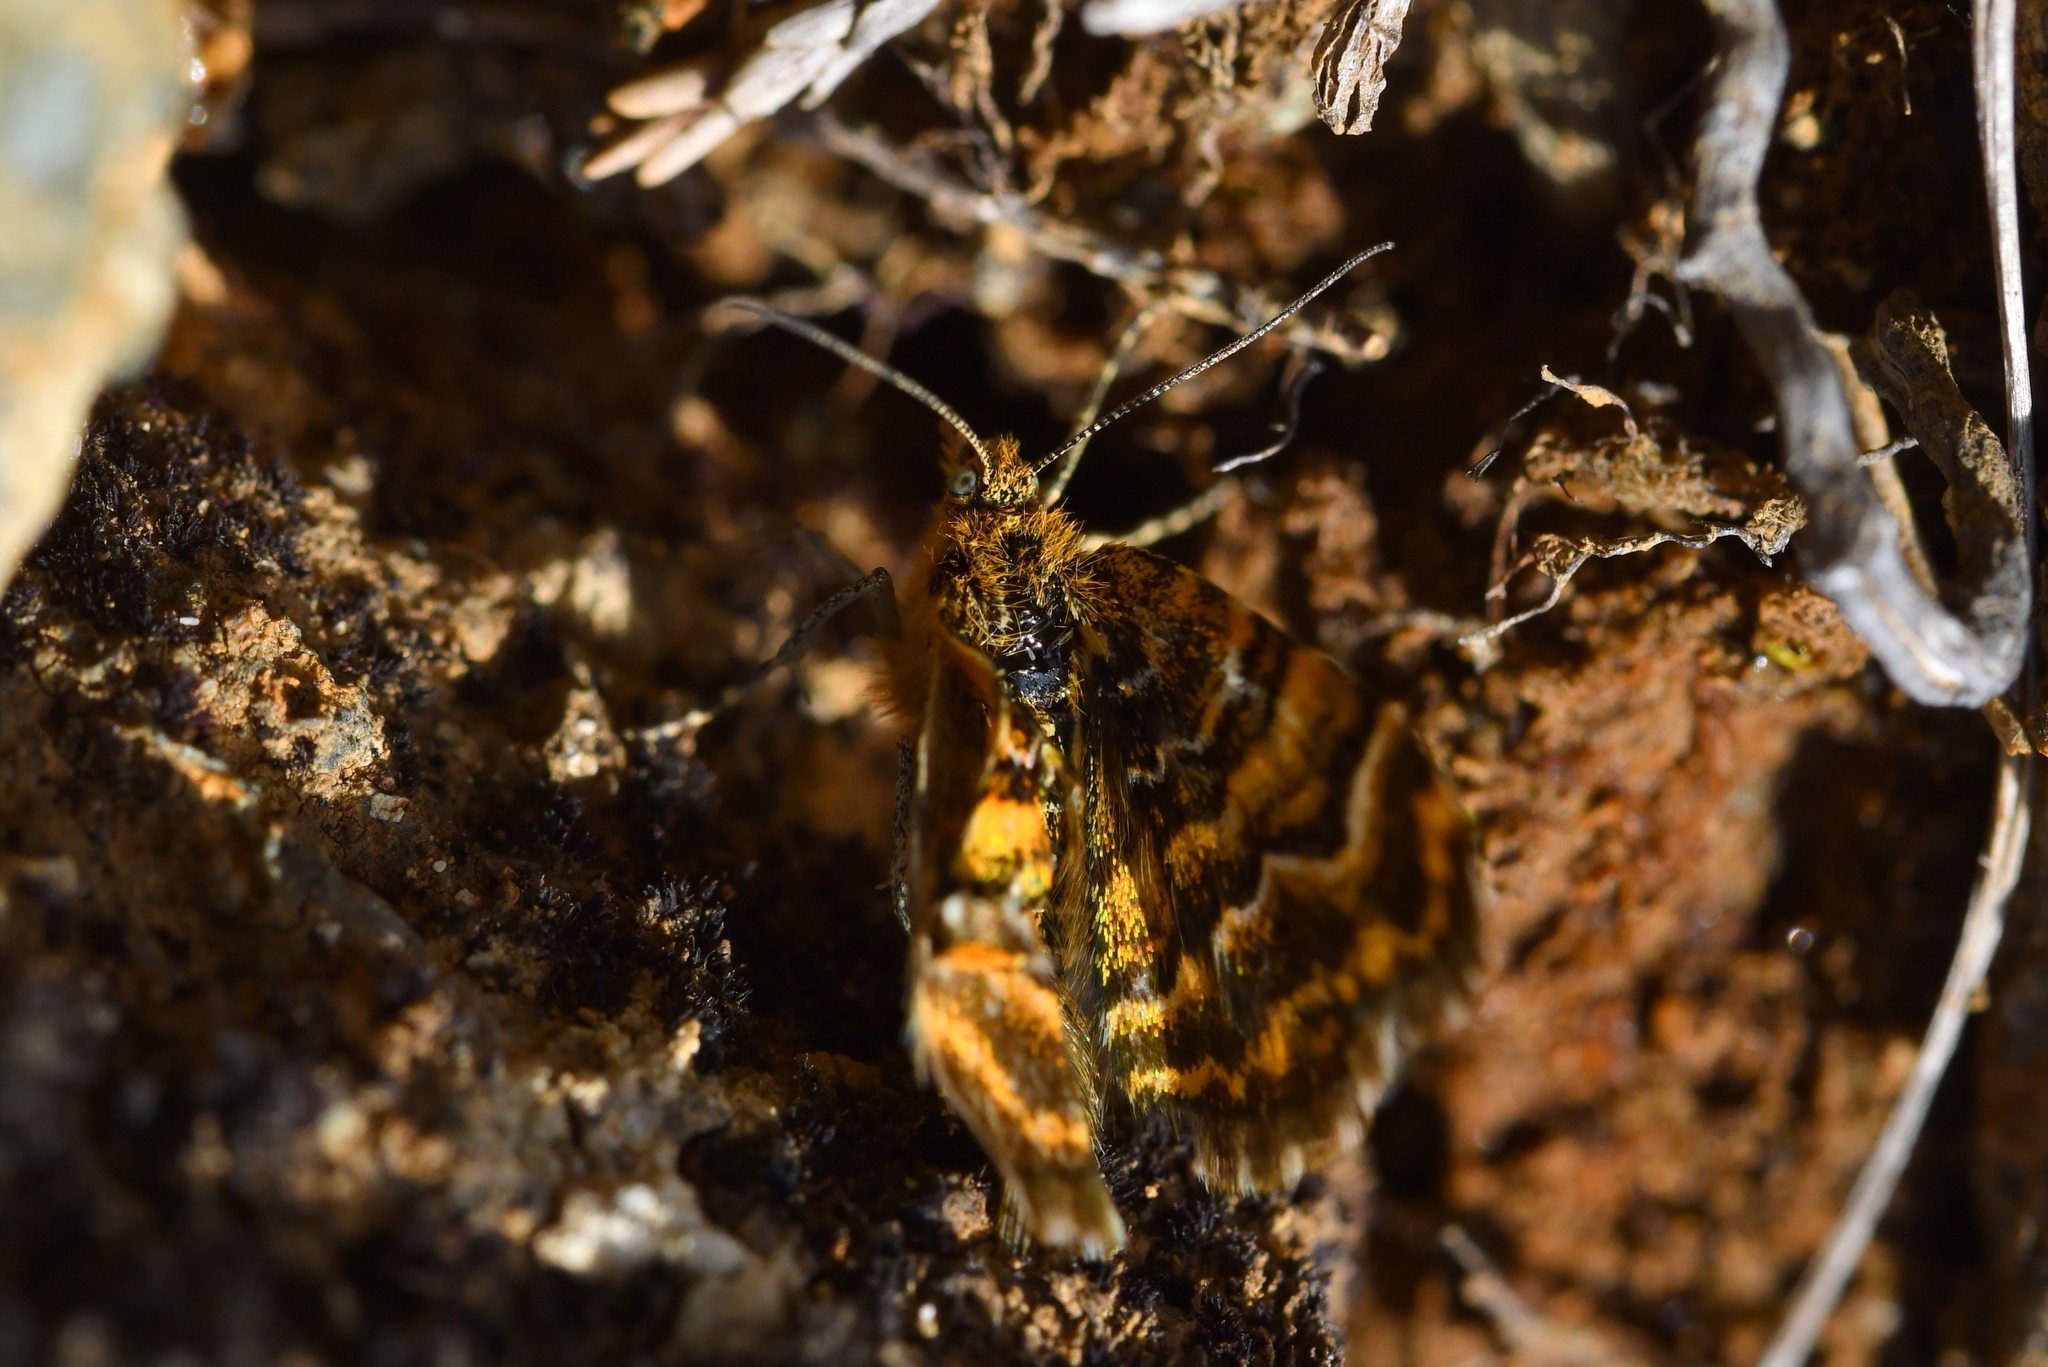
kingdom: Animalia
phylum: Arthropoda
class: Insecta
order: Lepidoptera
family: Geometridae
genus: Notoreas
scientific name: Notoreas
